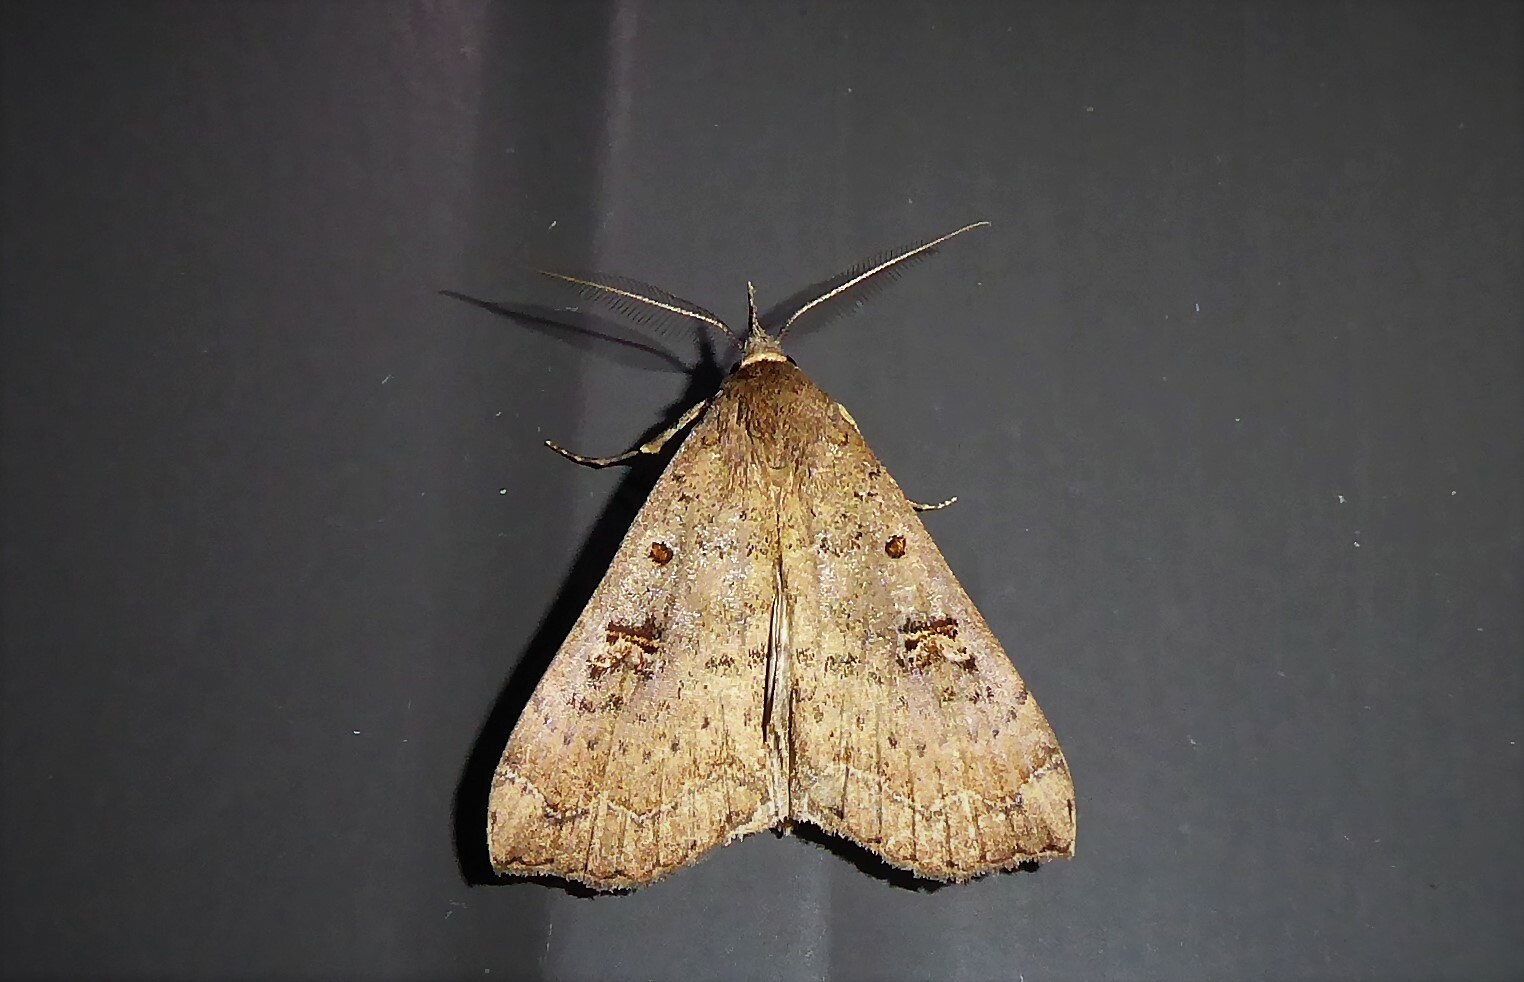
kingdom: Animalia
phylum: Arthropoda
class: Insecta
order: Lepidoptera
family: Erebidae
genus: Rhapsa
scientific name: Rhapsa scotosialis
